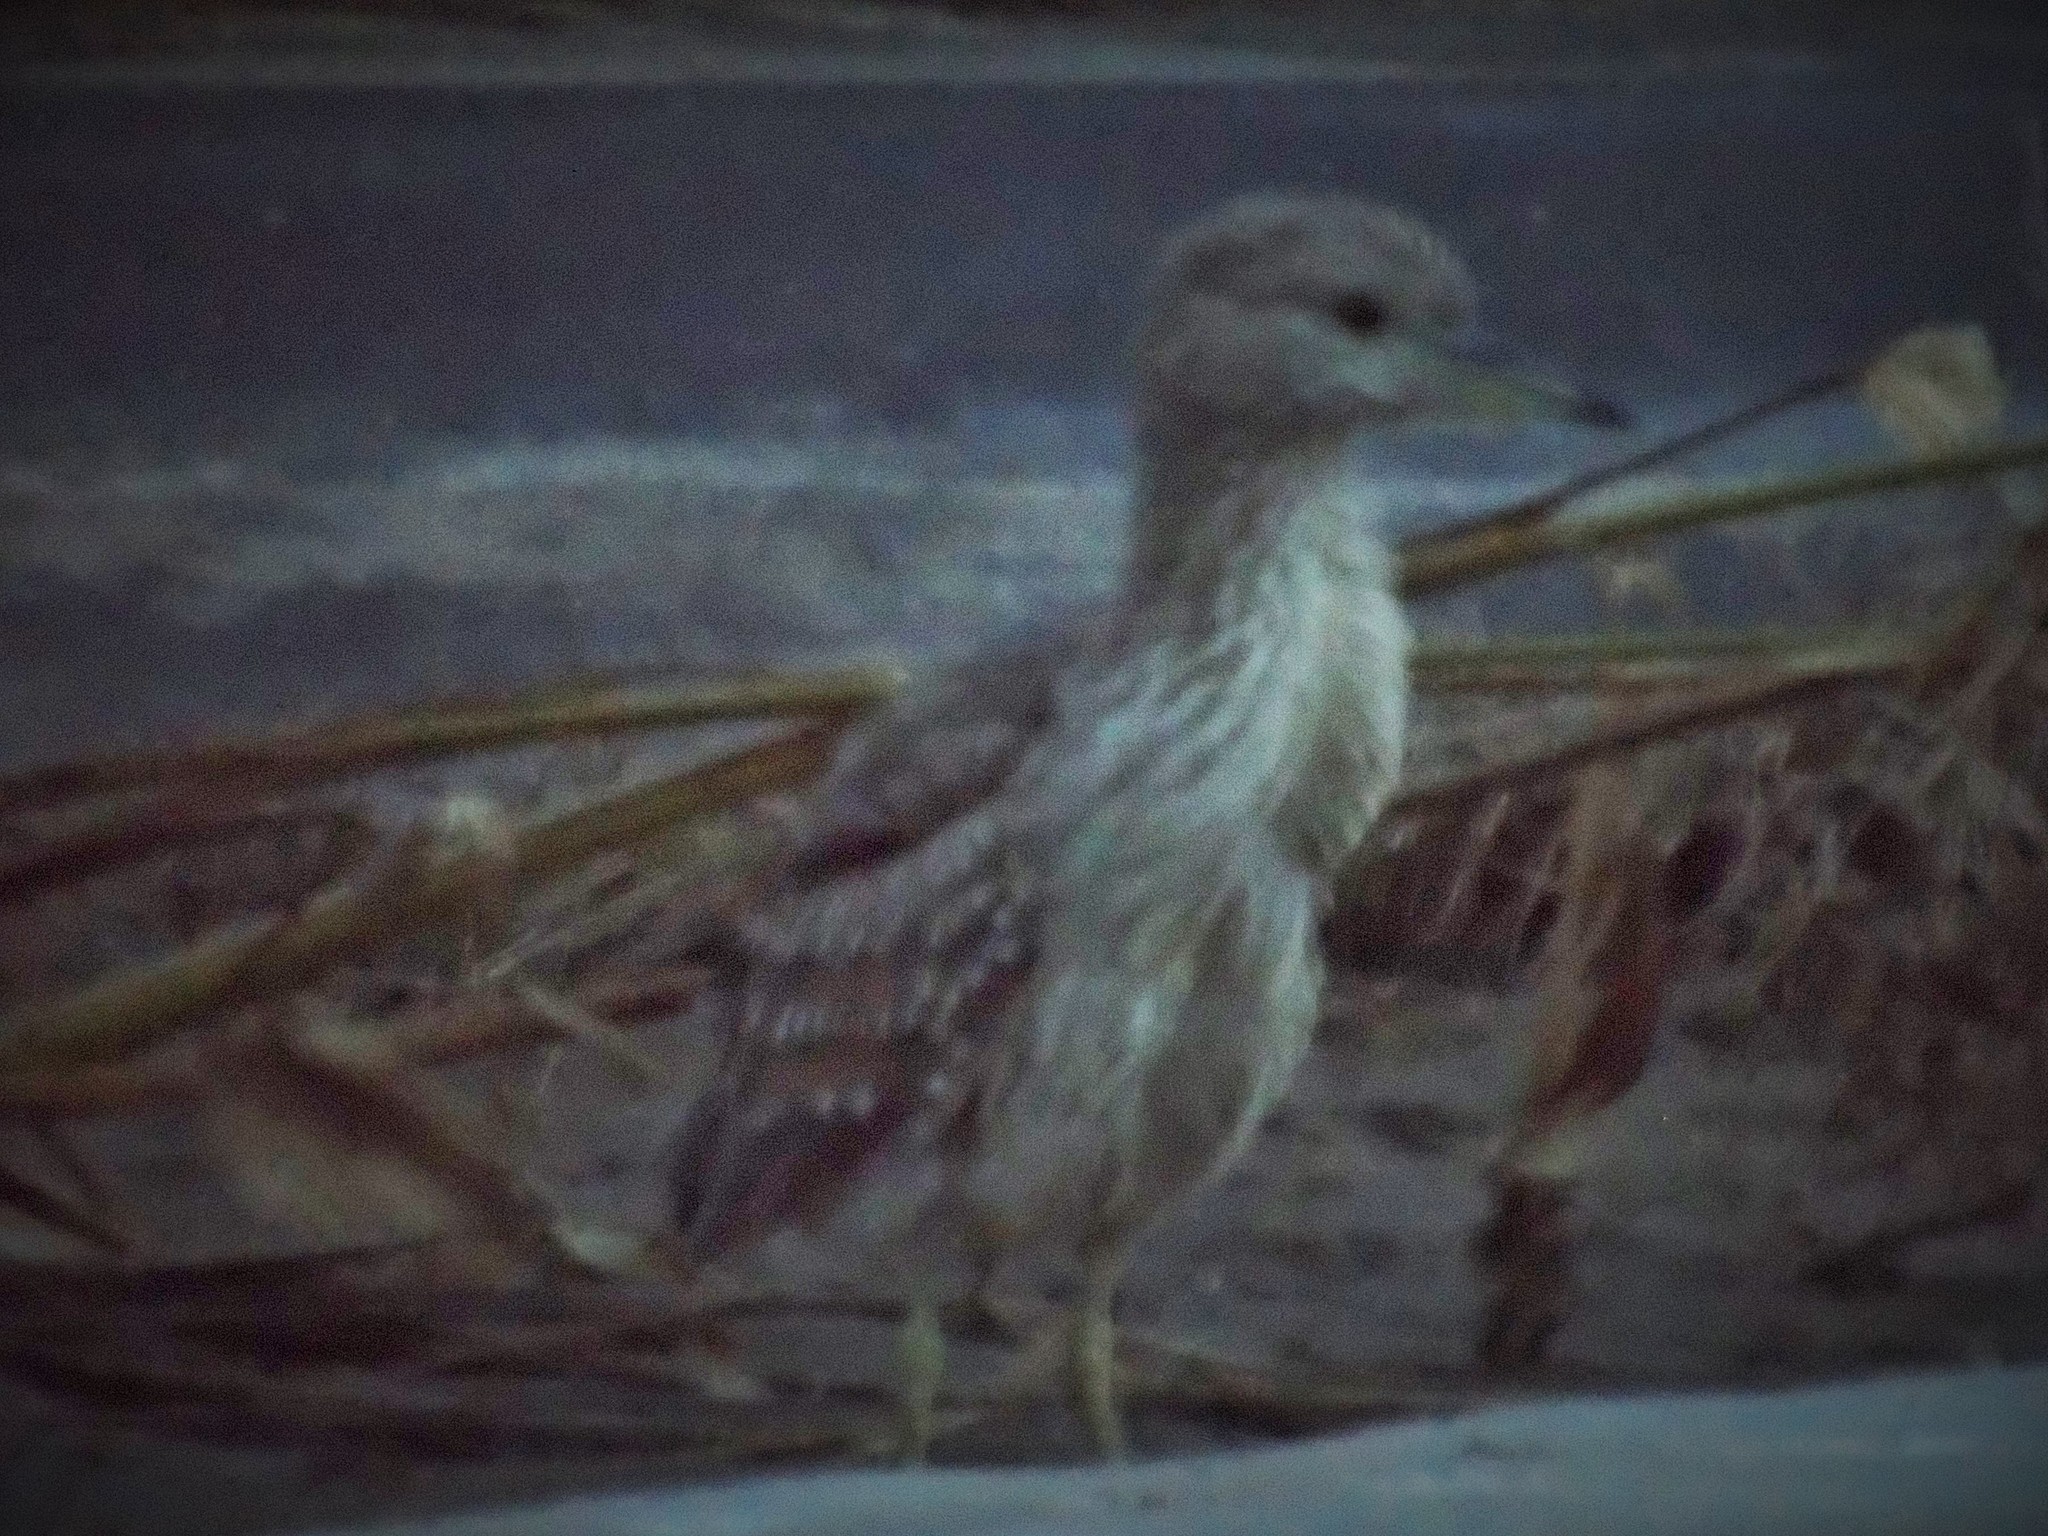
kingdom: Animalia
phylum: Chordata
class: Aves
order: Pelecaniformes
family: Ardeidae
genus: Nycticorax
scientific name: Nycticorax nycticorax
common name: Black-crowned night heron
